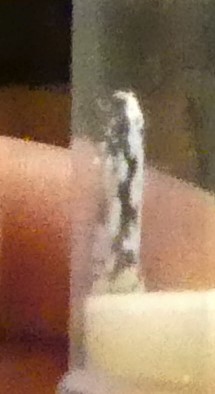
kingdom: Animalia
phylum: Arthropoda
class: Insecta
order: Lepidoptera
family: Ethmiidae
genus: Ethmia
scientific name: Ethmia pusiella
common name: Striped ermel
